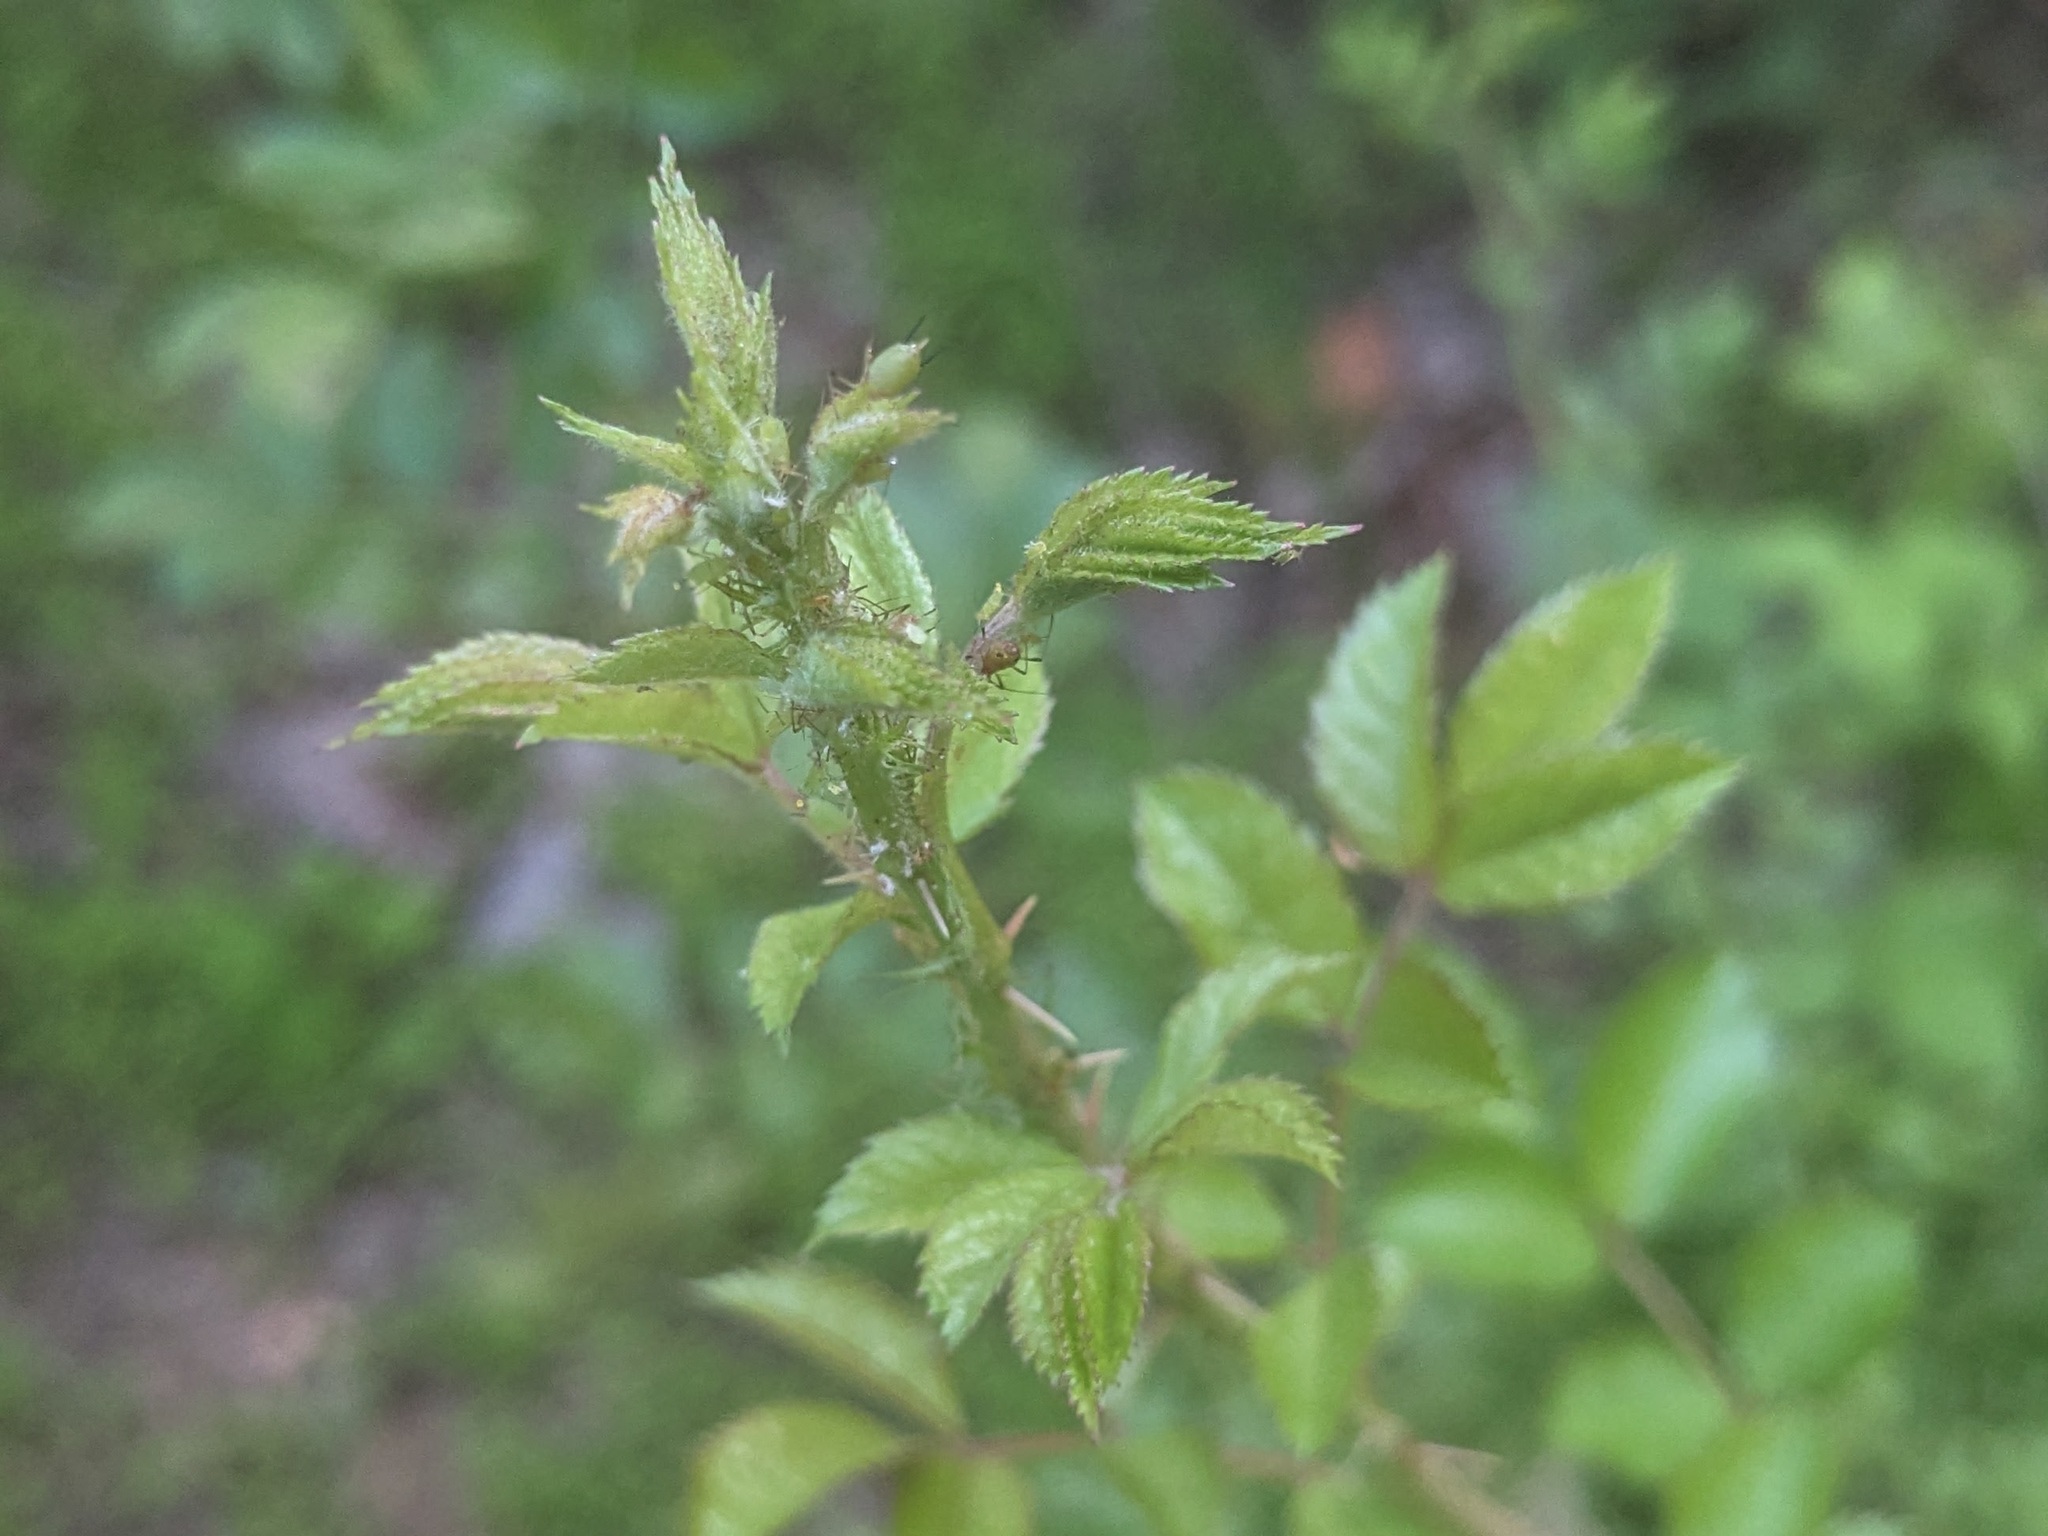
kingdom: Plantae
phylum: Tracheophyta
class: Magnoliopsida
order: Rosales
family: Rosaceae
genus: Rosa
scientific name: Rosa multiflora
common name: Multiflora rose
